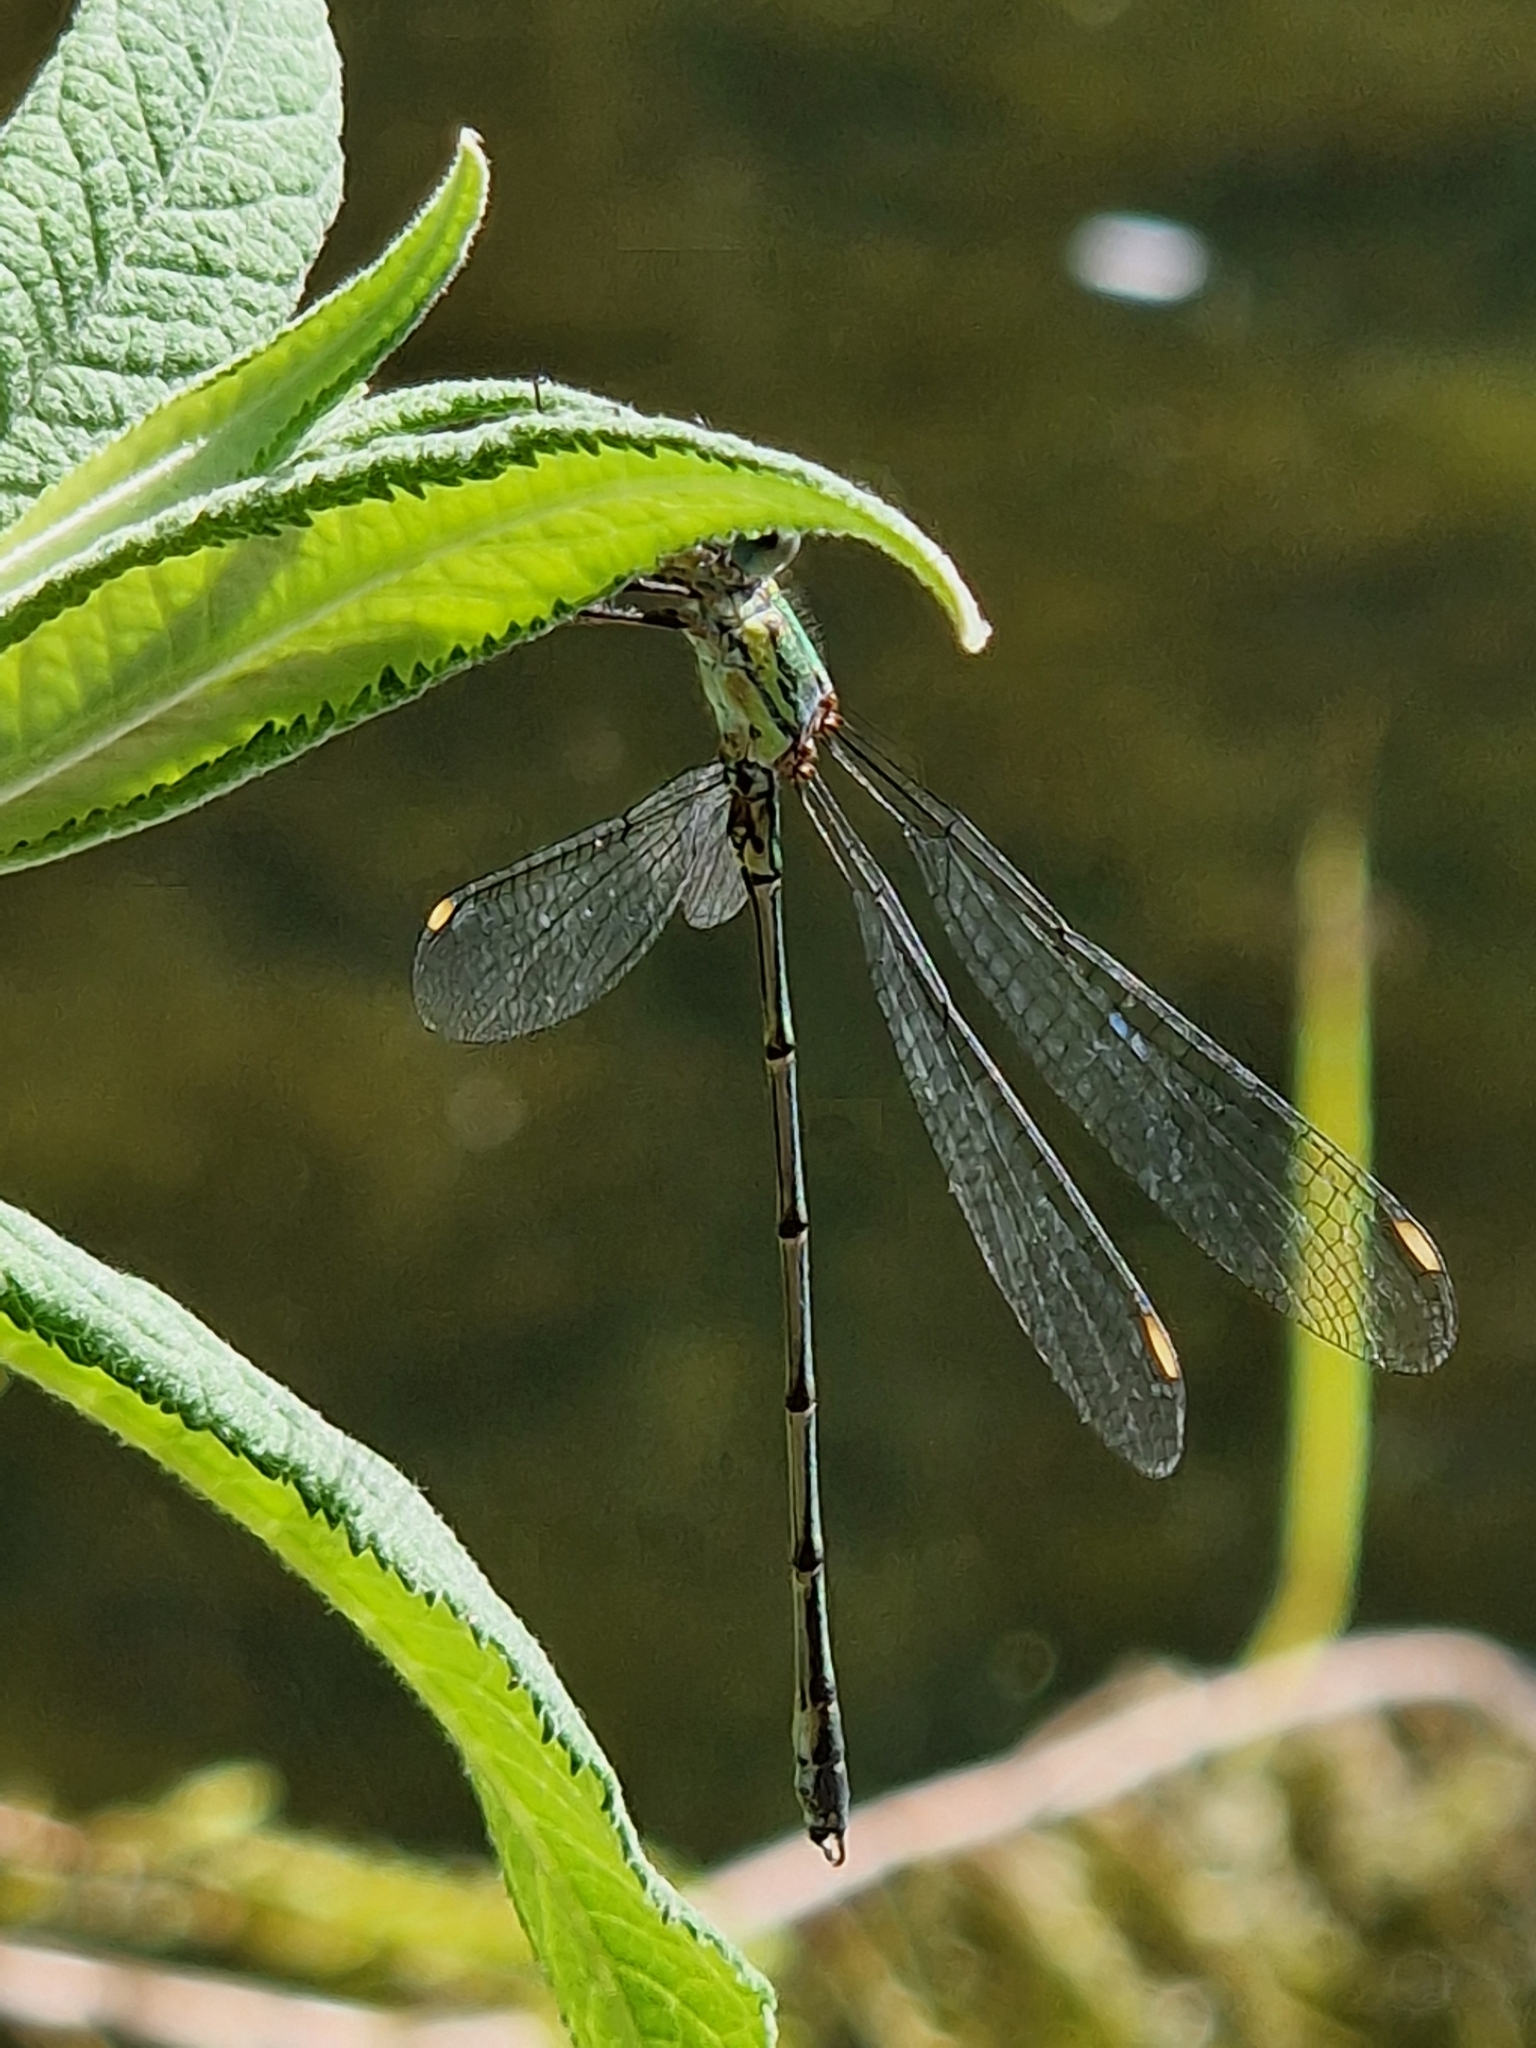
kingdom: Animalia
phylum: Arthropoda
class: Insecta
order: Odonata
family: Lestidae
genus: Chalcolestes
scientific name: Chalcolestes viridis
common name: Green emerald damselfly
